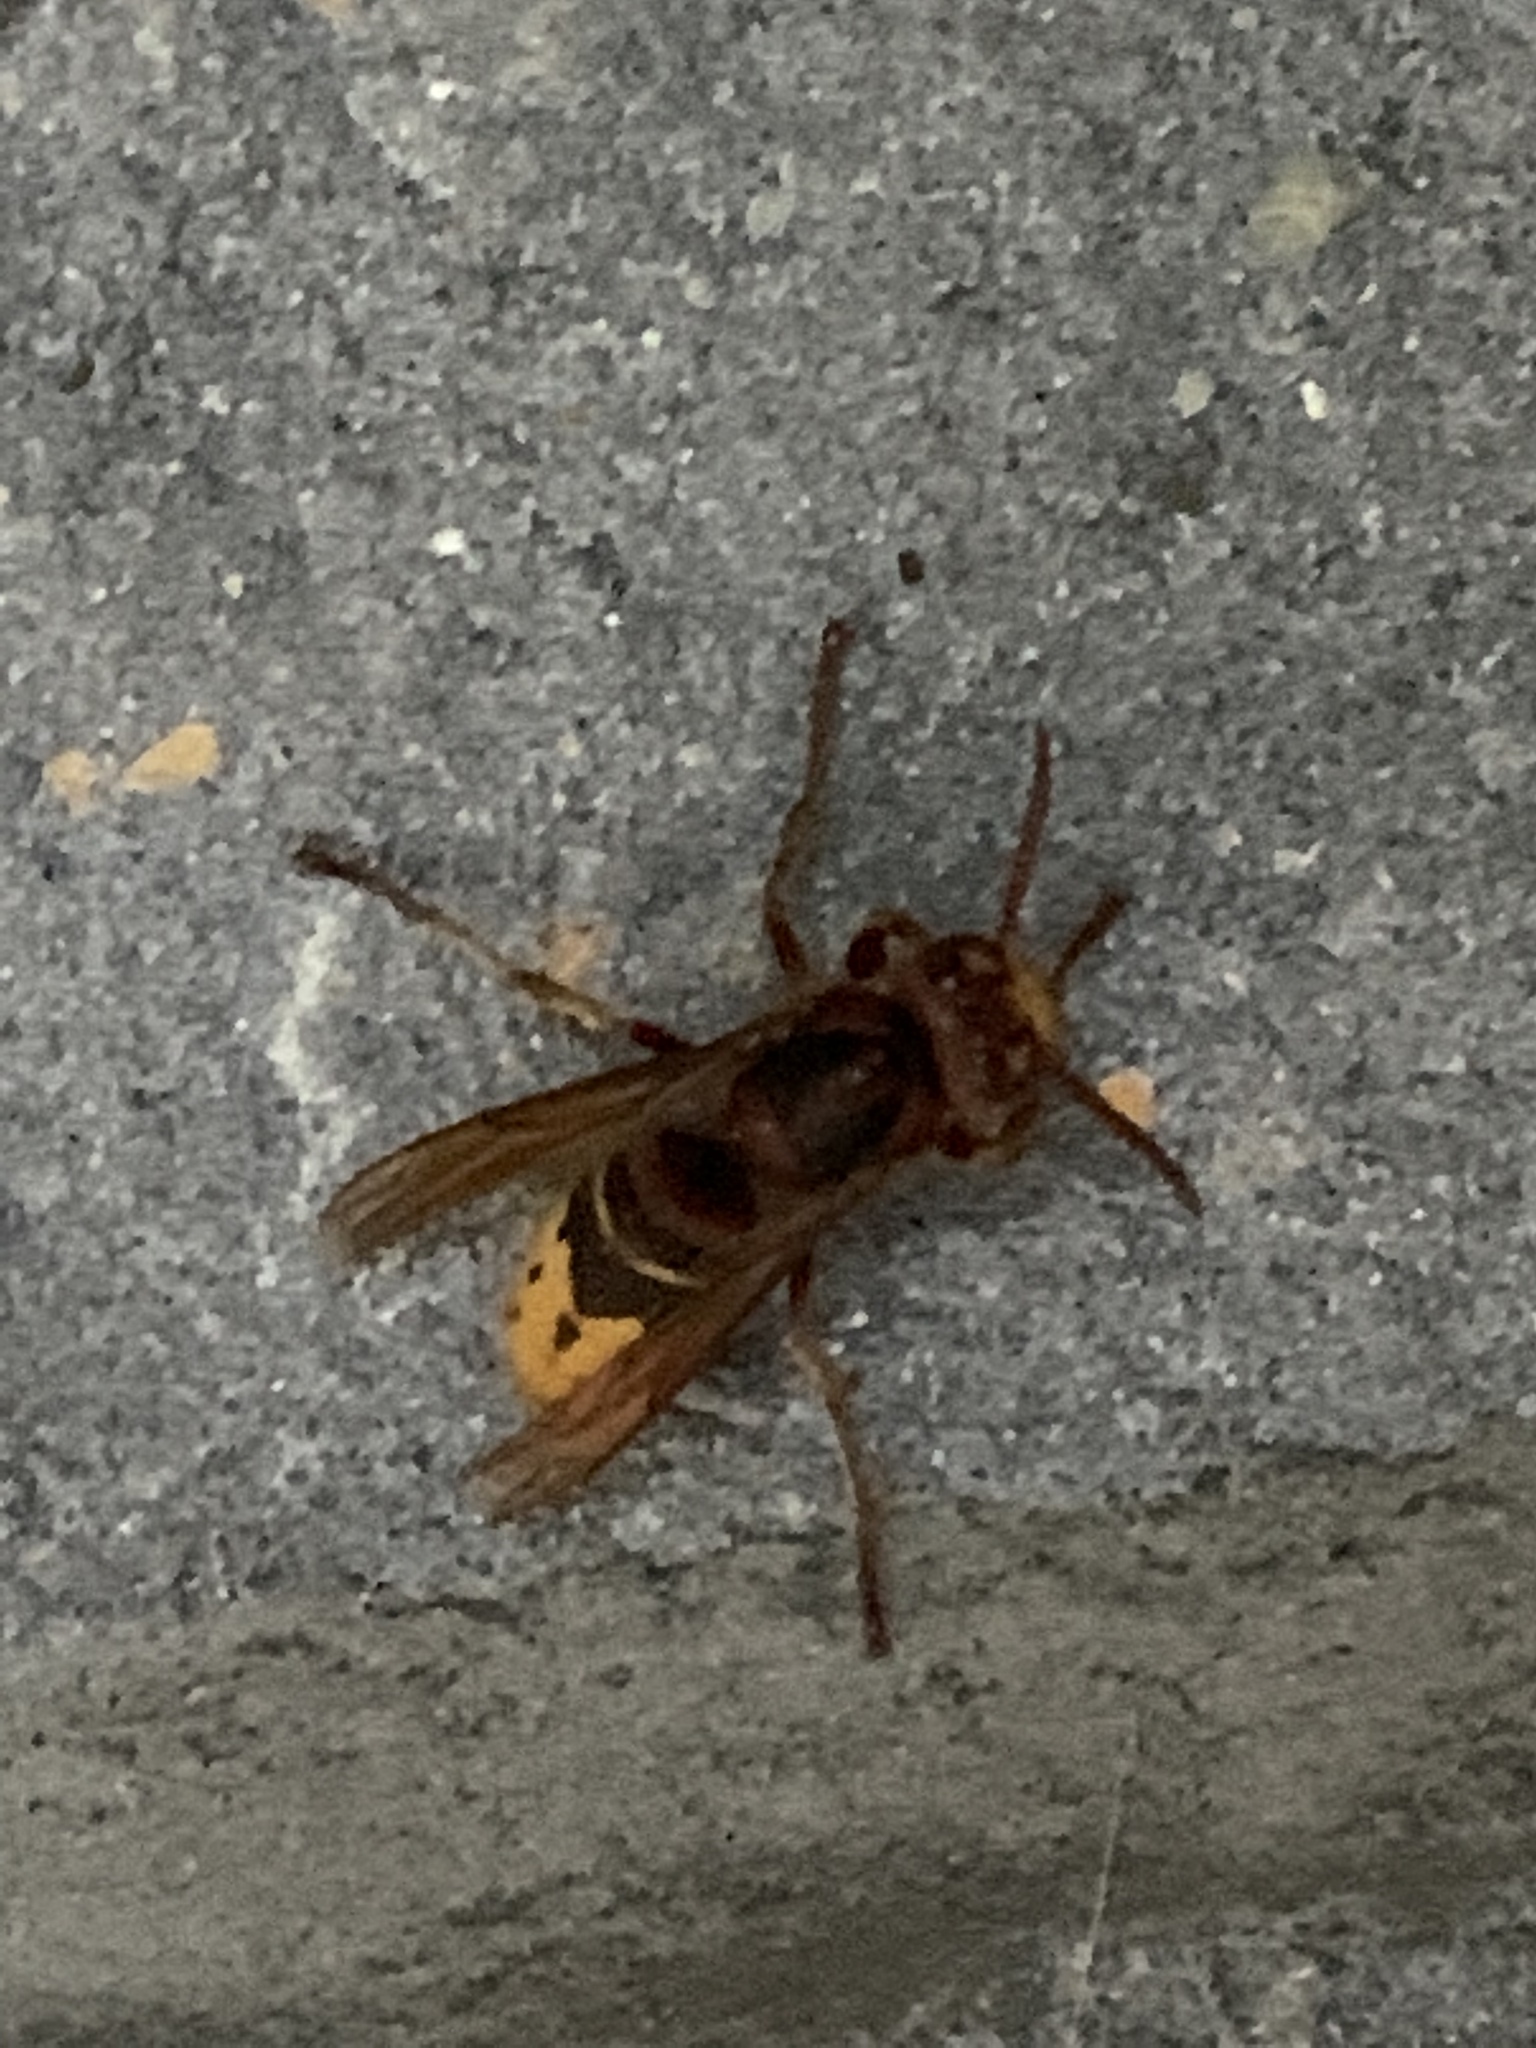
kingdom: Animalia
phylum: Arthropoda
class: Insecta
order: Hymenoptera
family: Vespidae
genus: Vespa
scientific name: Vespa crabro
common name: Hornet
